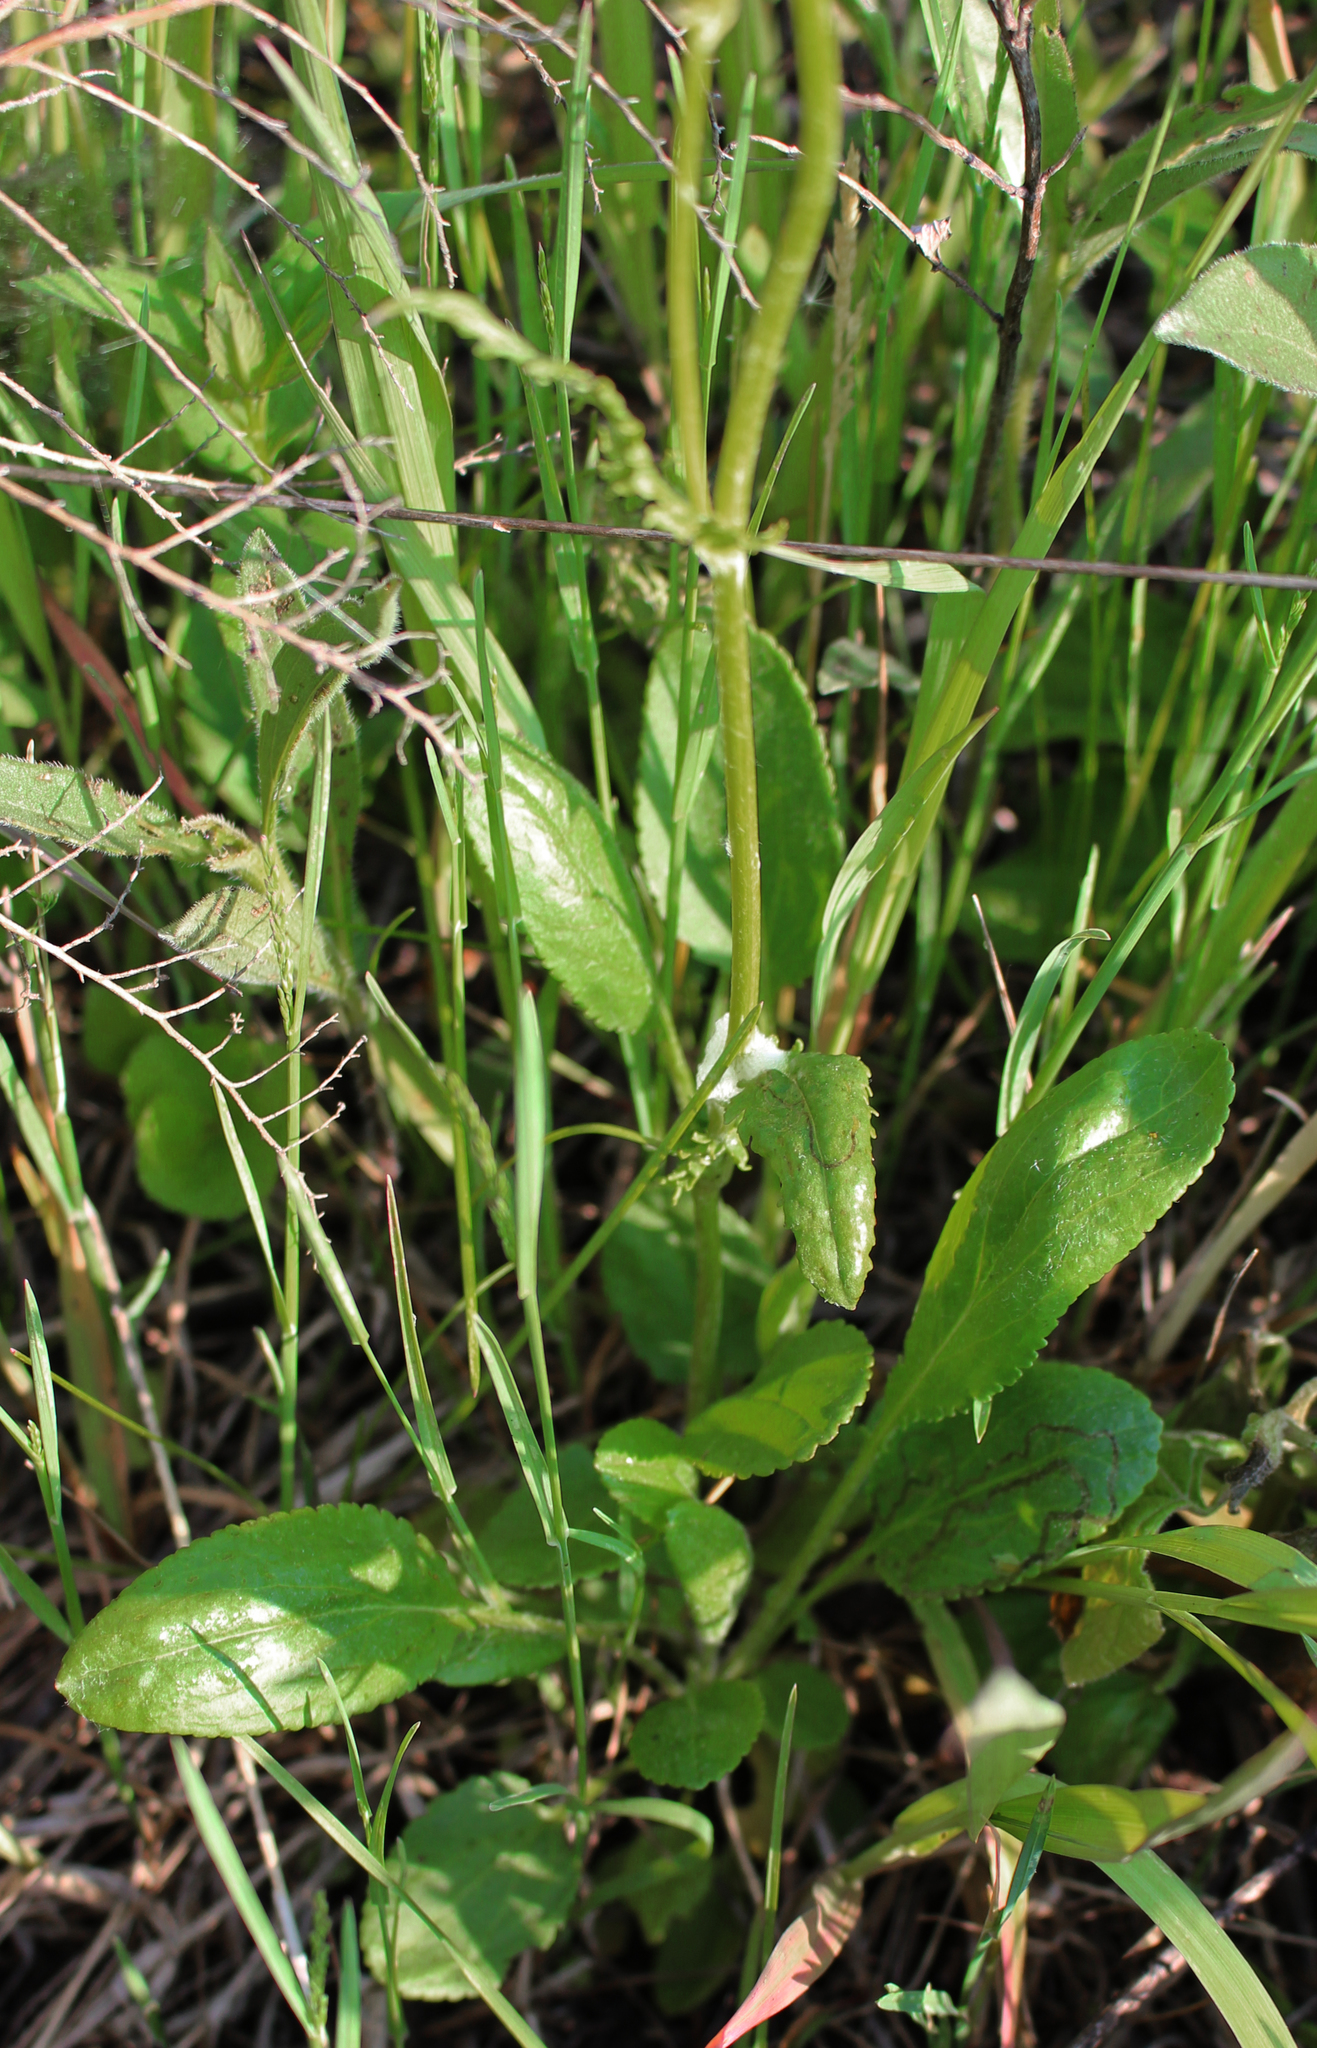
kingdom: Plantae
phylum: Tracheophyta
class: Magnoliopsida
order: Asterales
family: Asteraceae
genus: Packera
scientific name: Packera paupercula
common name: Balsam groundsel
